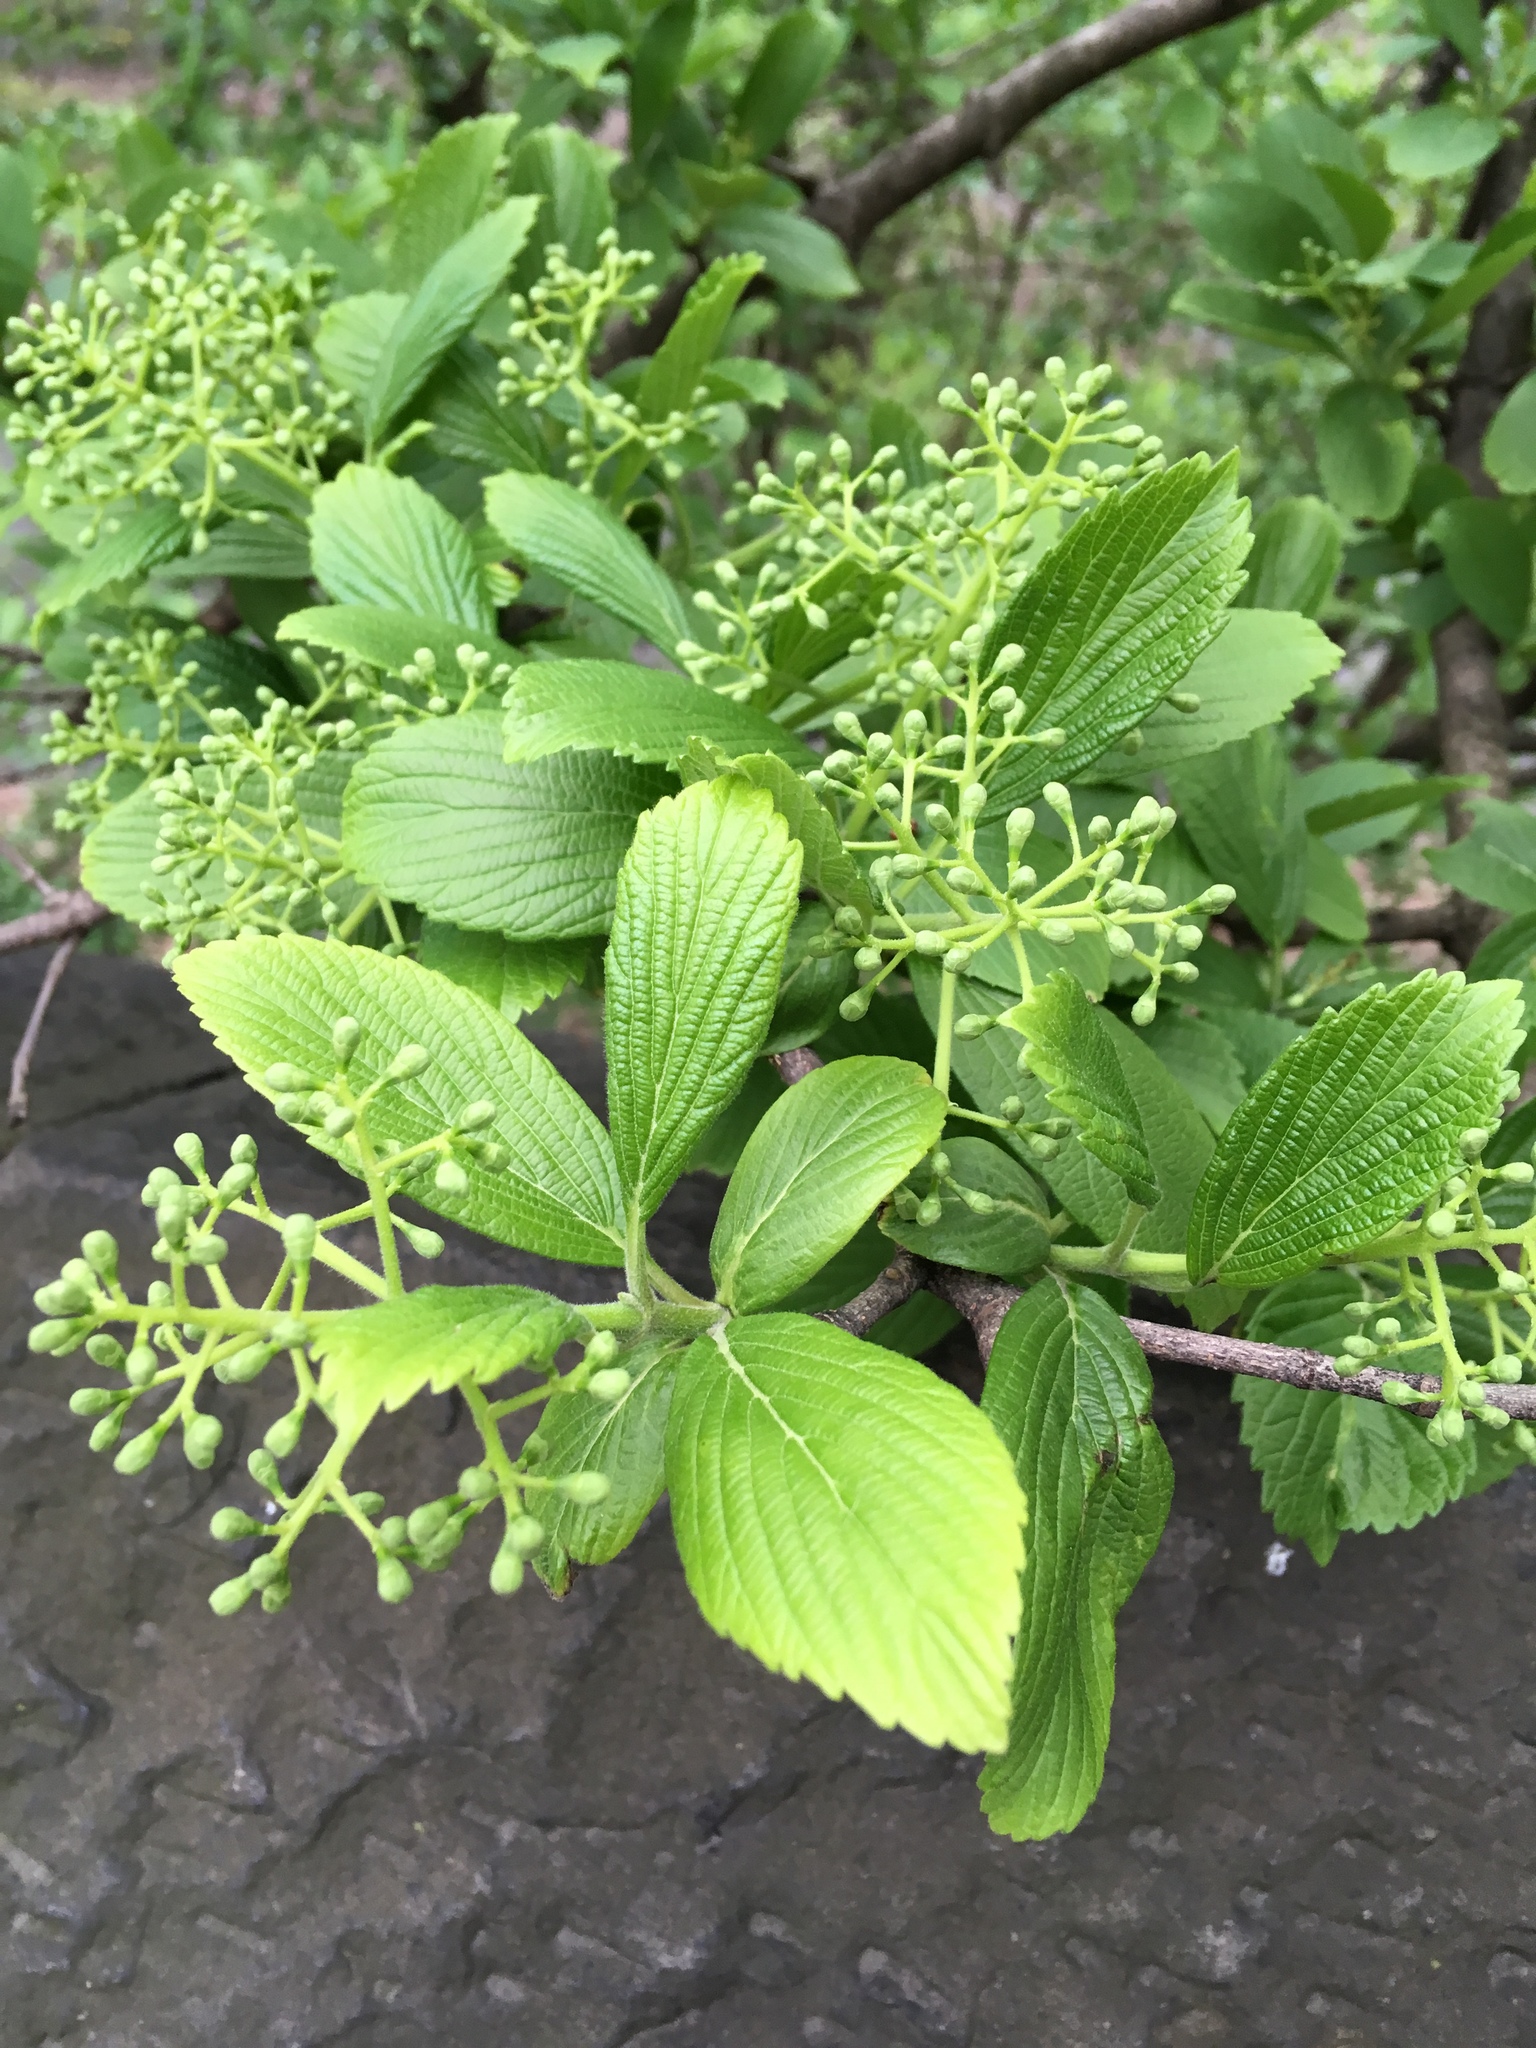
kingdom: Plantae
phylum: Tracheophyta
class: Magnoliopsida
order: Dipsacales
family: Viburnaceae
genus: Viburnum
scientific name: Viburnum sieboldii
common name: Siebold's arrowwood
